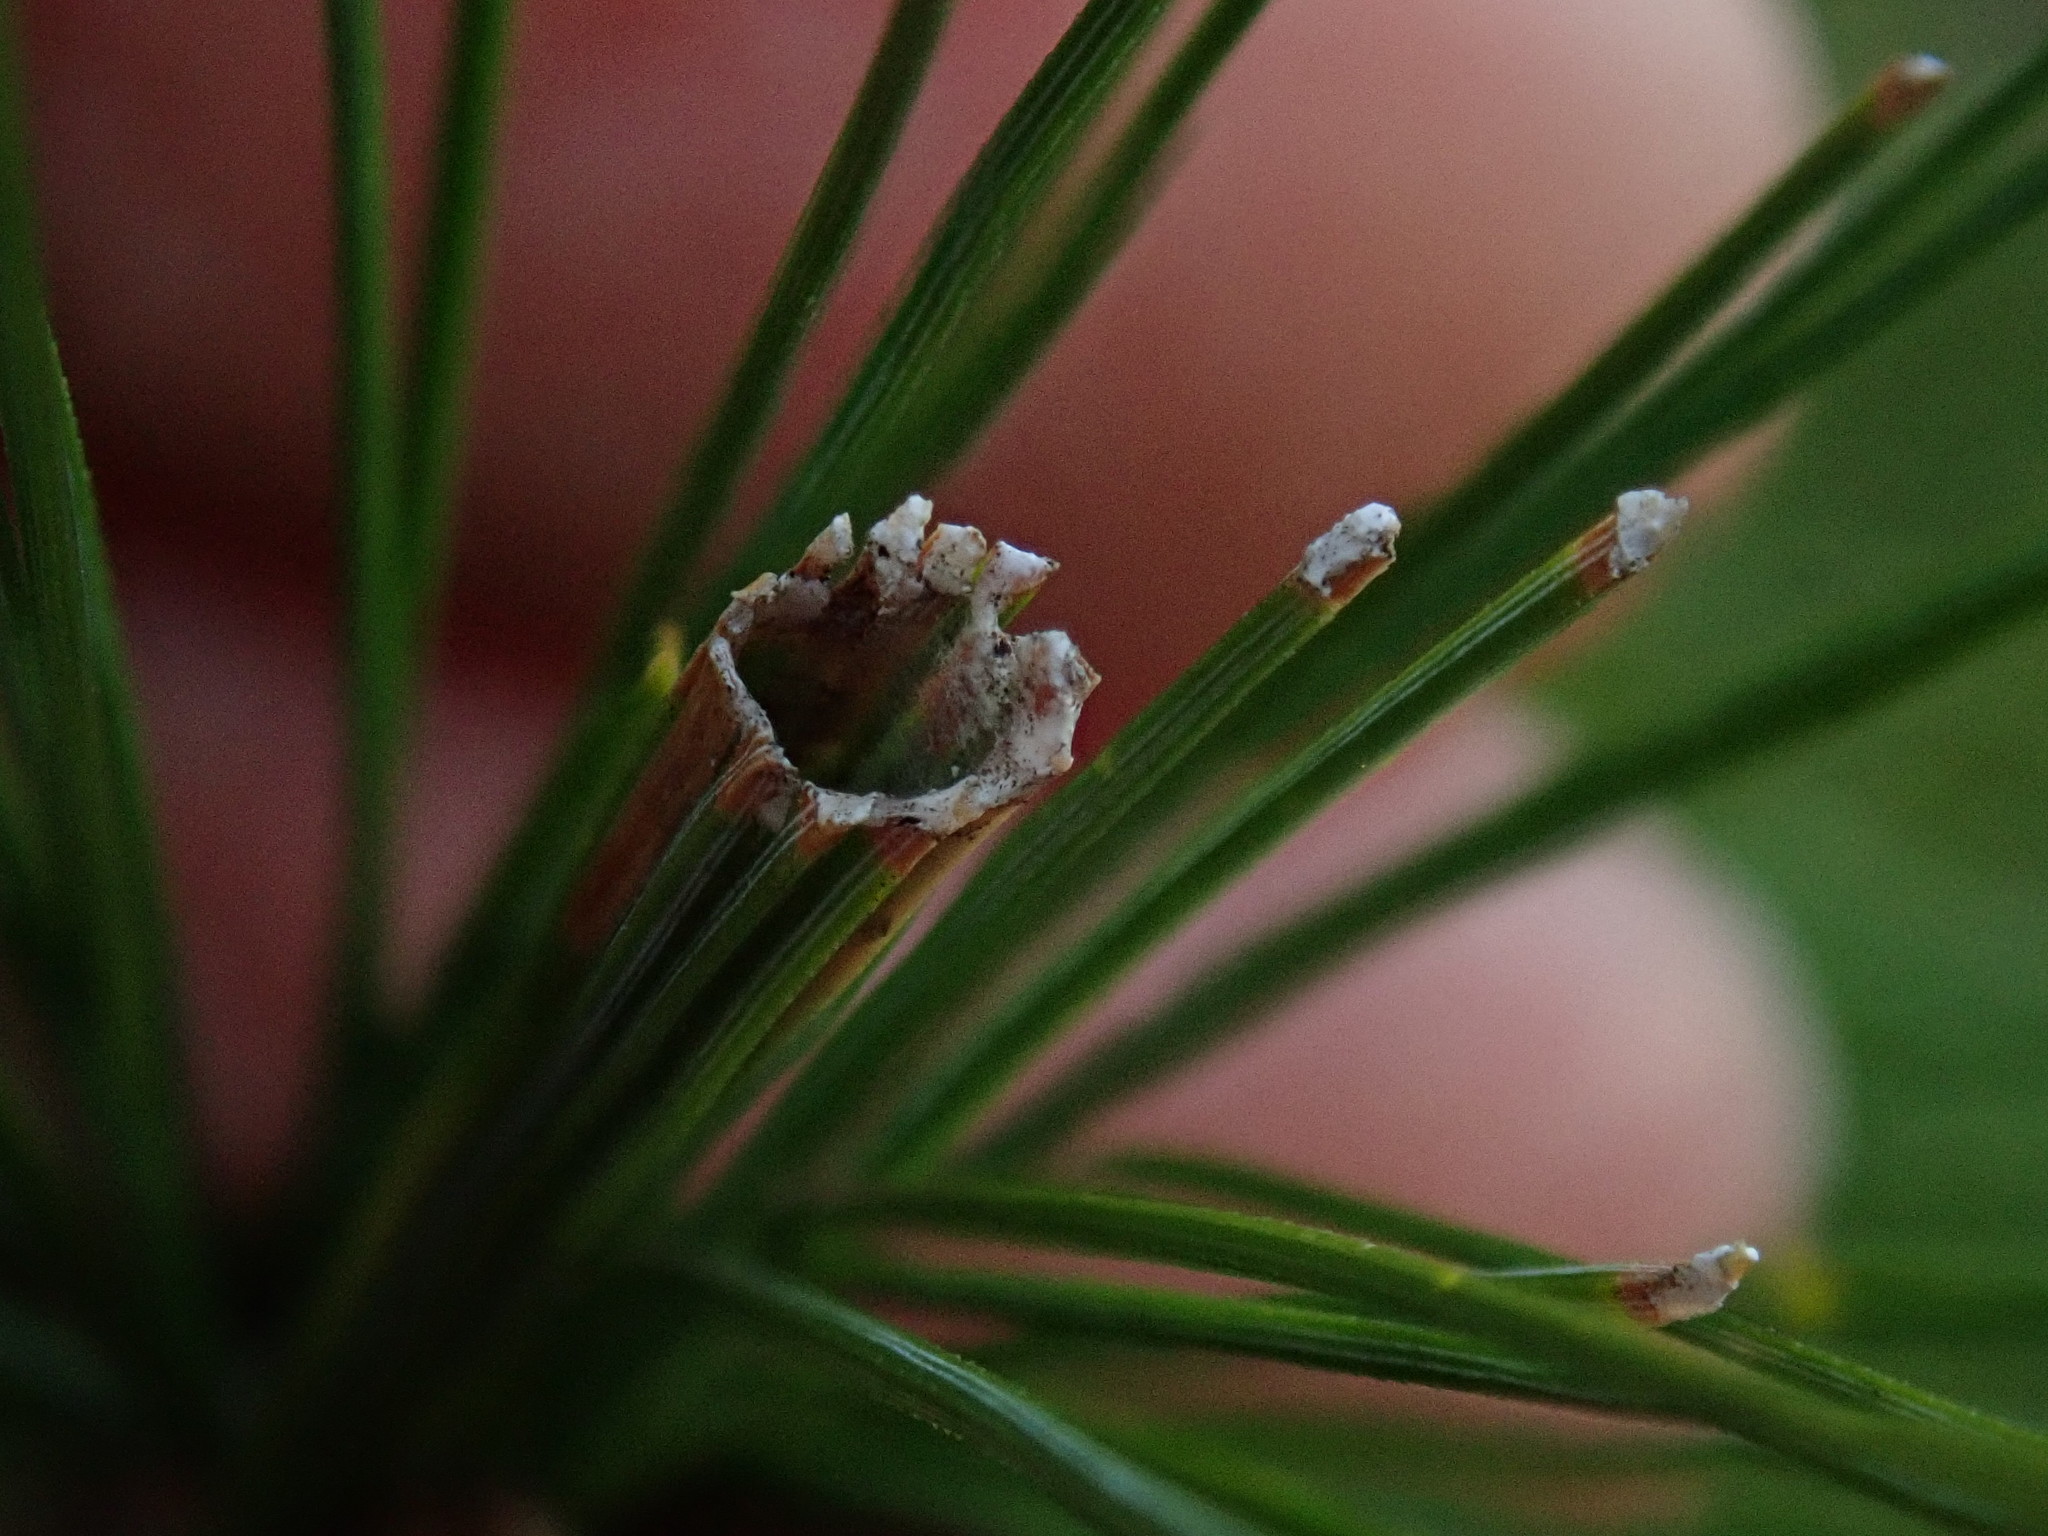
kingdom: Animalia
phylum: Arthropoda
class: Insecta
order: Lepidoptera
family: Tortricidae
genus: Argyrotaenia
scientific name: Argyrotaenia pinatubana
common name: Pine tube moth
